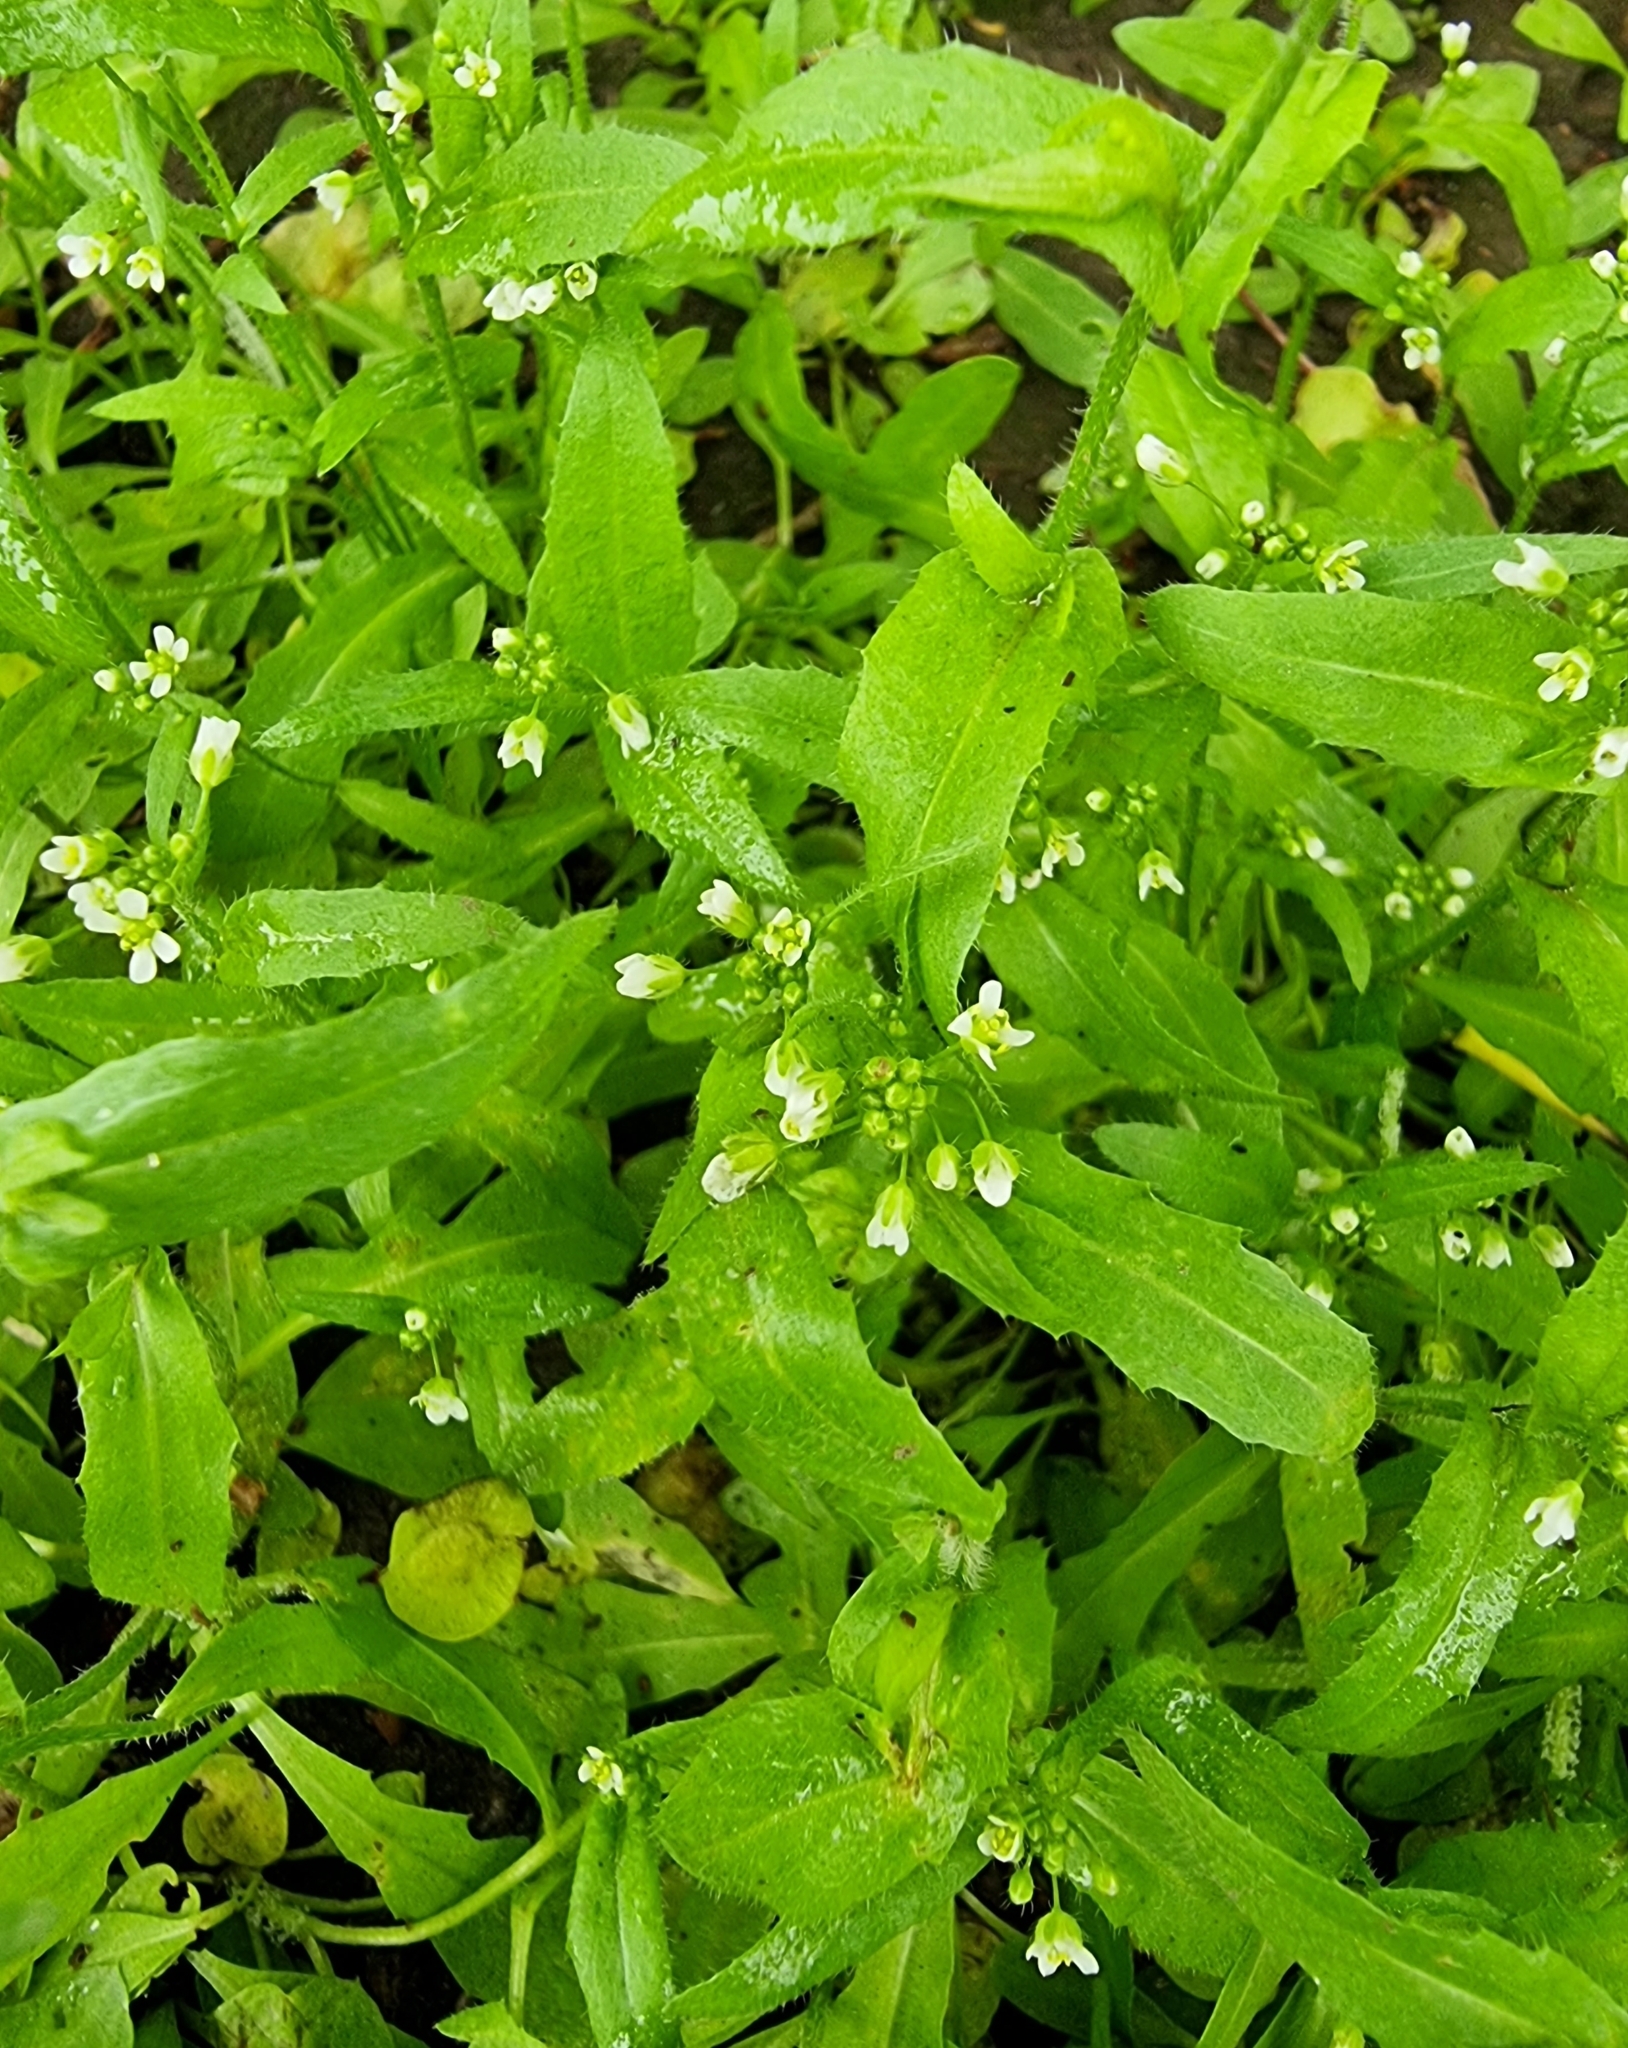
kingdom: Plantae
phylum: Tracheophyta
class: Magnoliopsida
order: Brassicales
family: Brassicaceae
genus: Capsella
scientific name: Capsella bursa-pastoris
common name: Shepherd's purse
